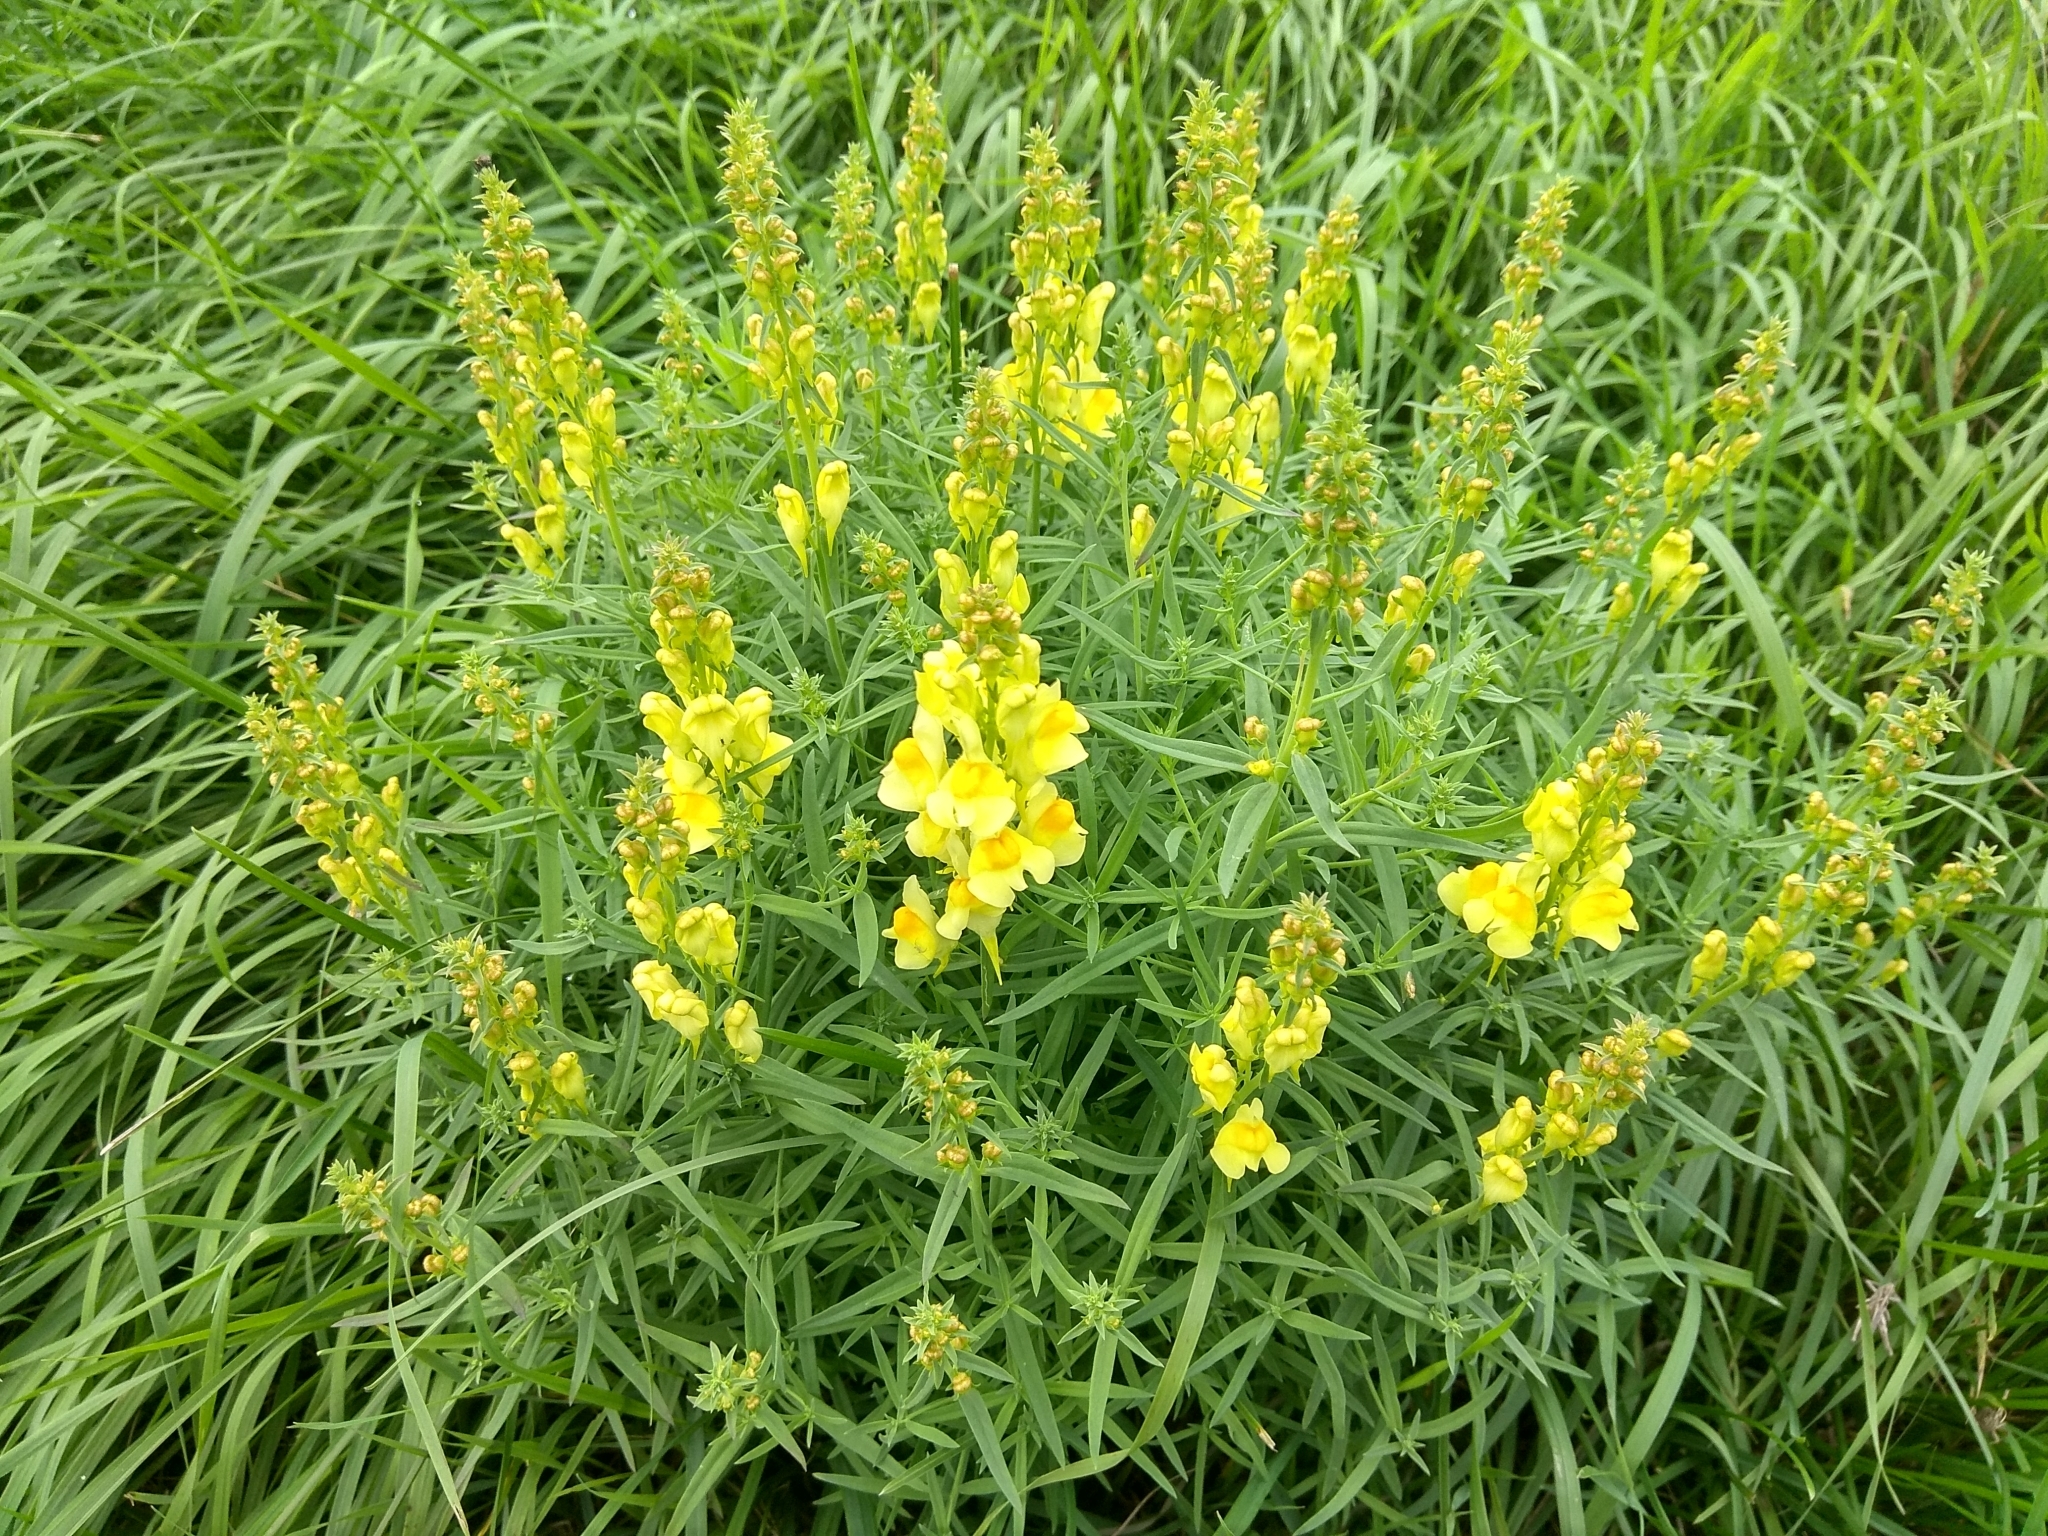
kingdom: Plantae
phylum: Tracheophyta
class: Magnoliopsida
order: Lamiales
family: Plantaginaceae
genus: Linaria
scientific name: Linaria vulgaris
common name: Butter and eggs
